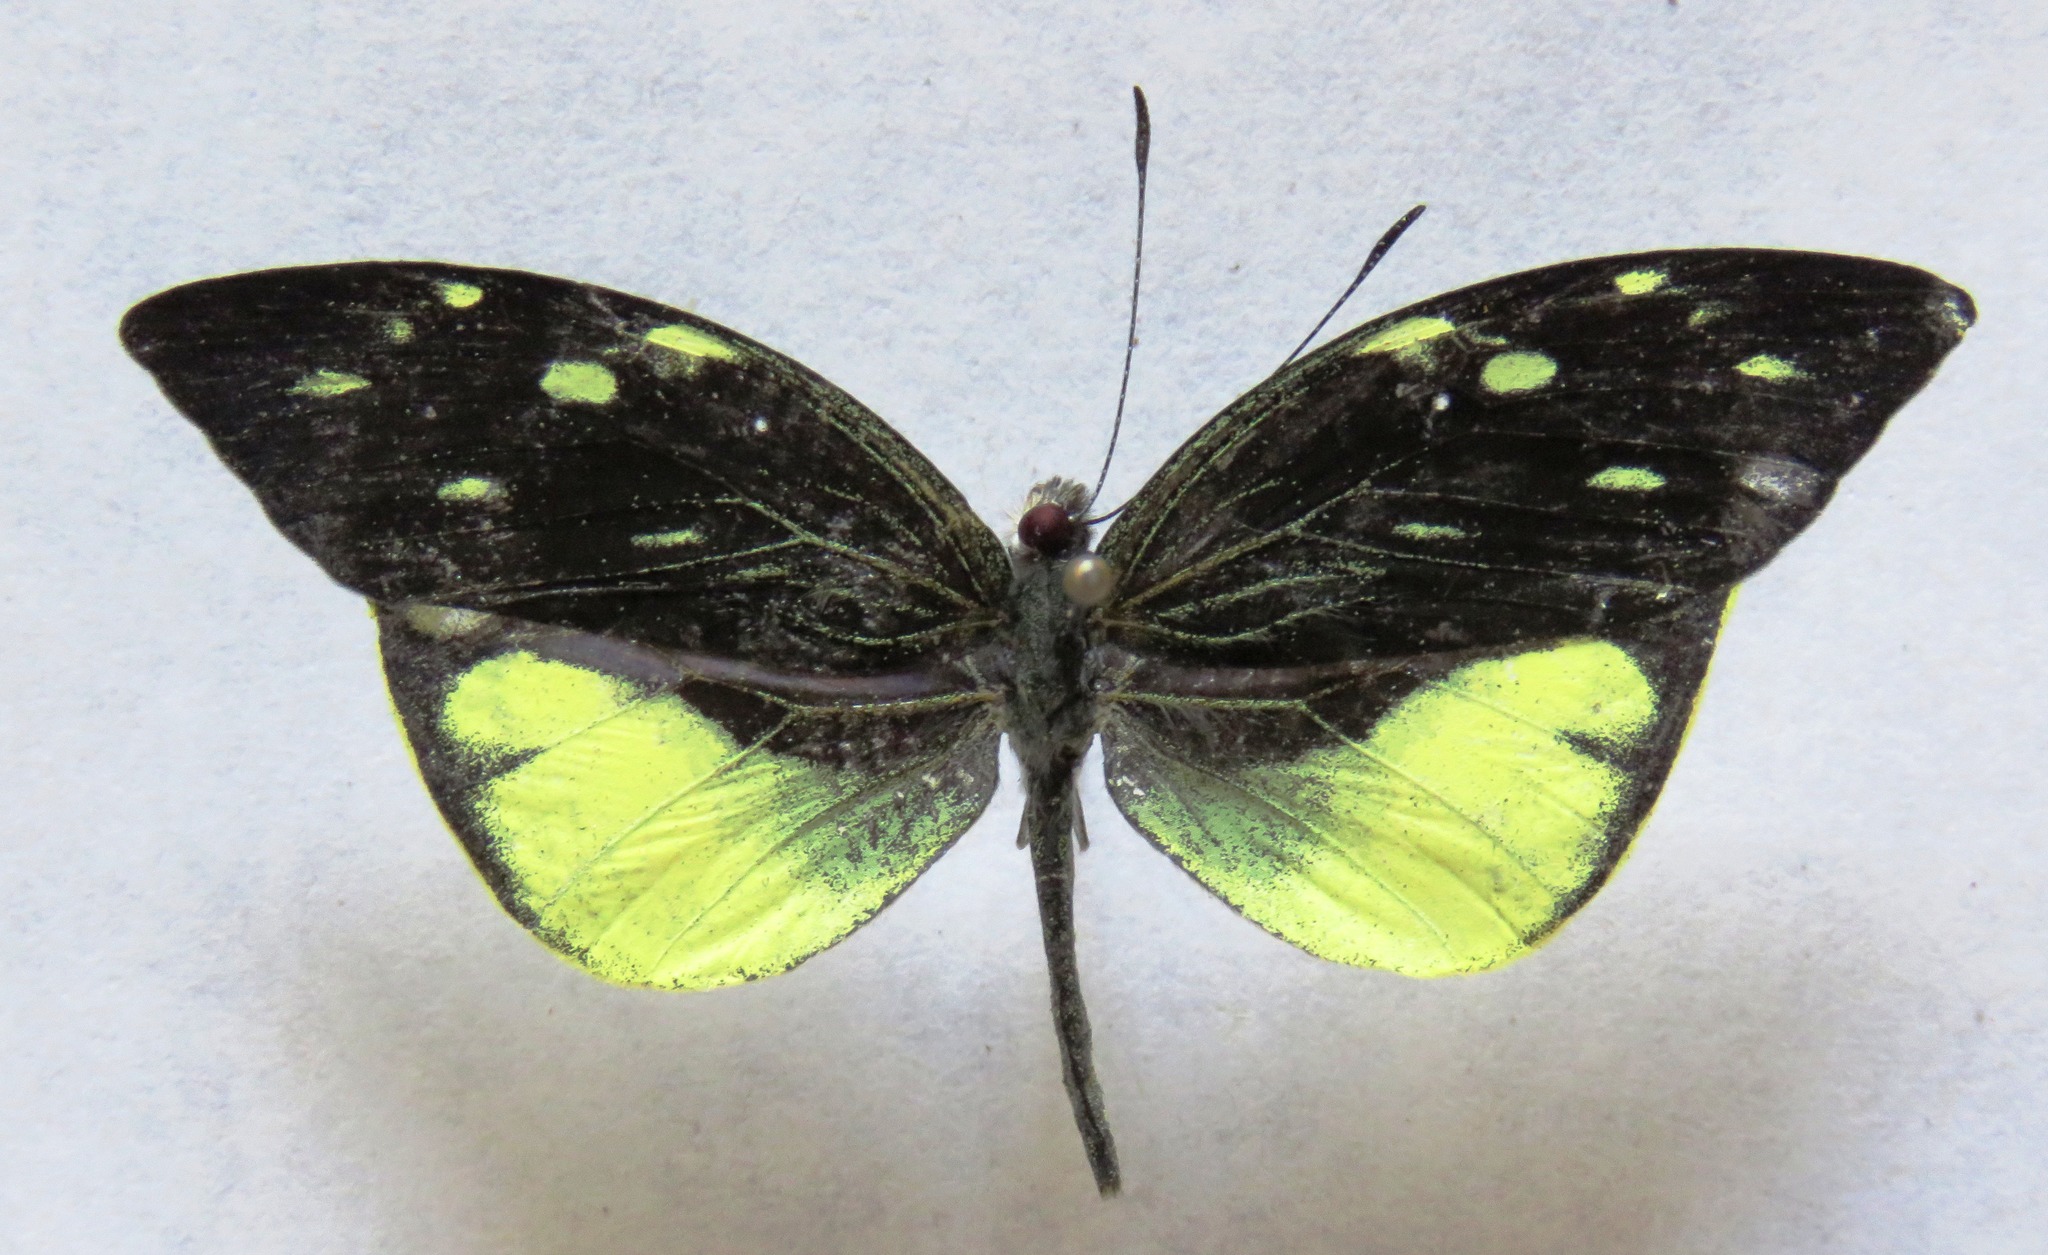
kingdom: Animalia
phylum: Arthropoda
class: Insecta
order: Lepidoptera
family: Pieridae
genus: Lieinix
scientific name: Lieinix nemesis
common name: Frosted mimic-white
